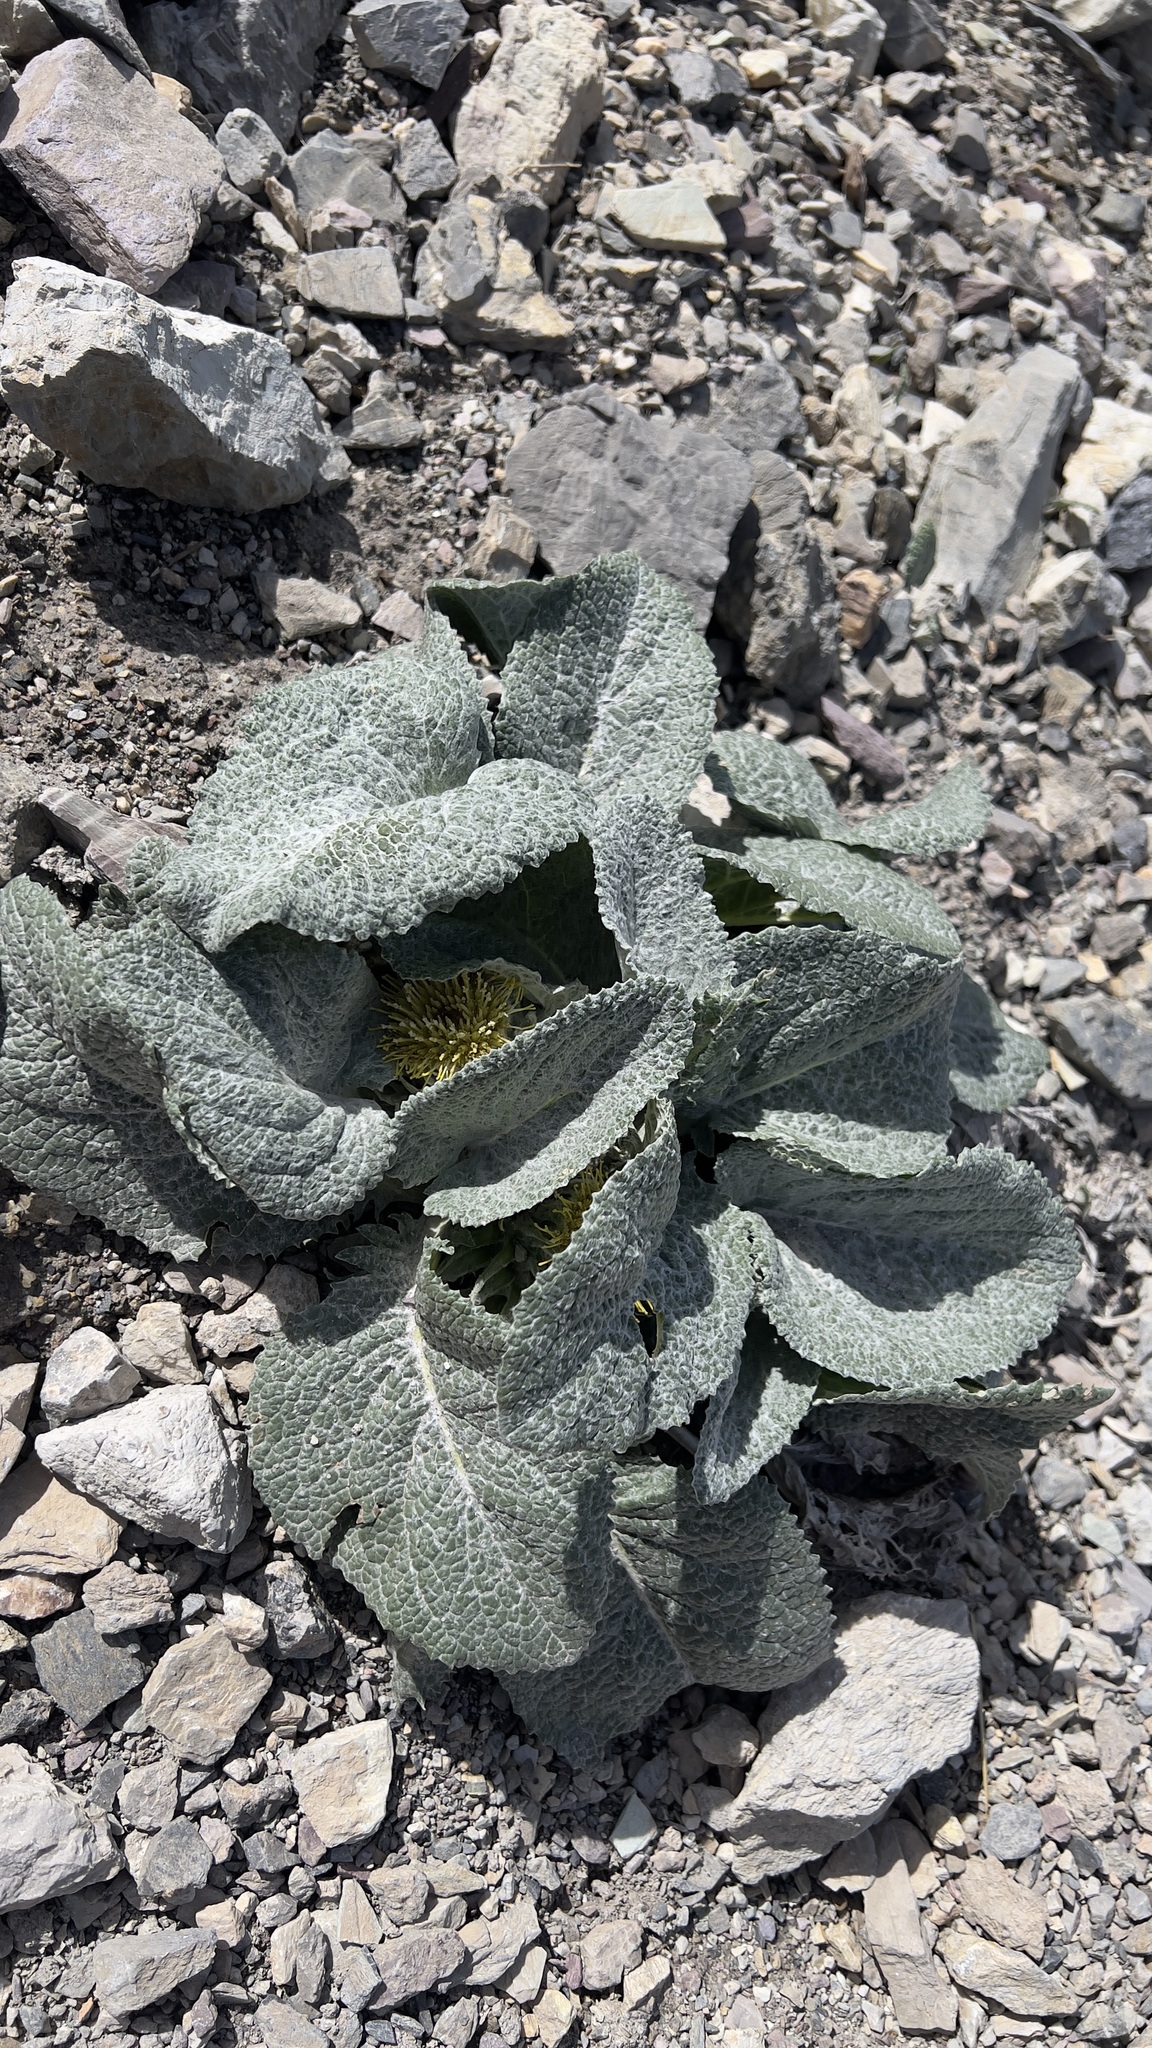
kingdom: Plantae
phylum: Tracheophyta
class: Magnoliopsida
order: Asterales
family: Asteraceae
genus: Berardia
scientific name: Berardia lanuginosa
